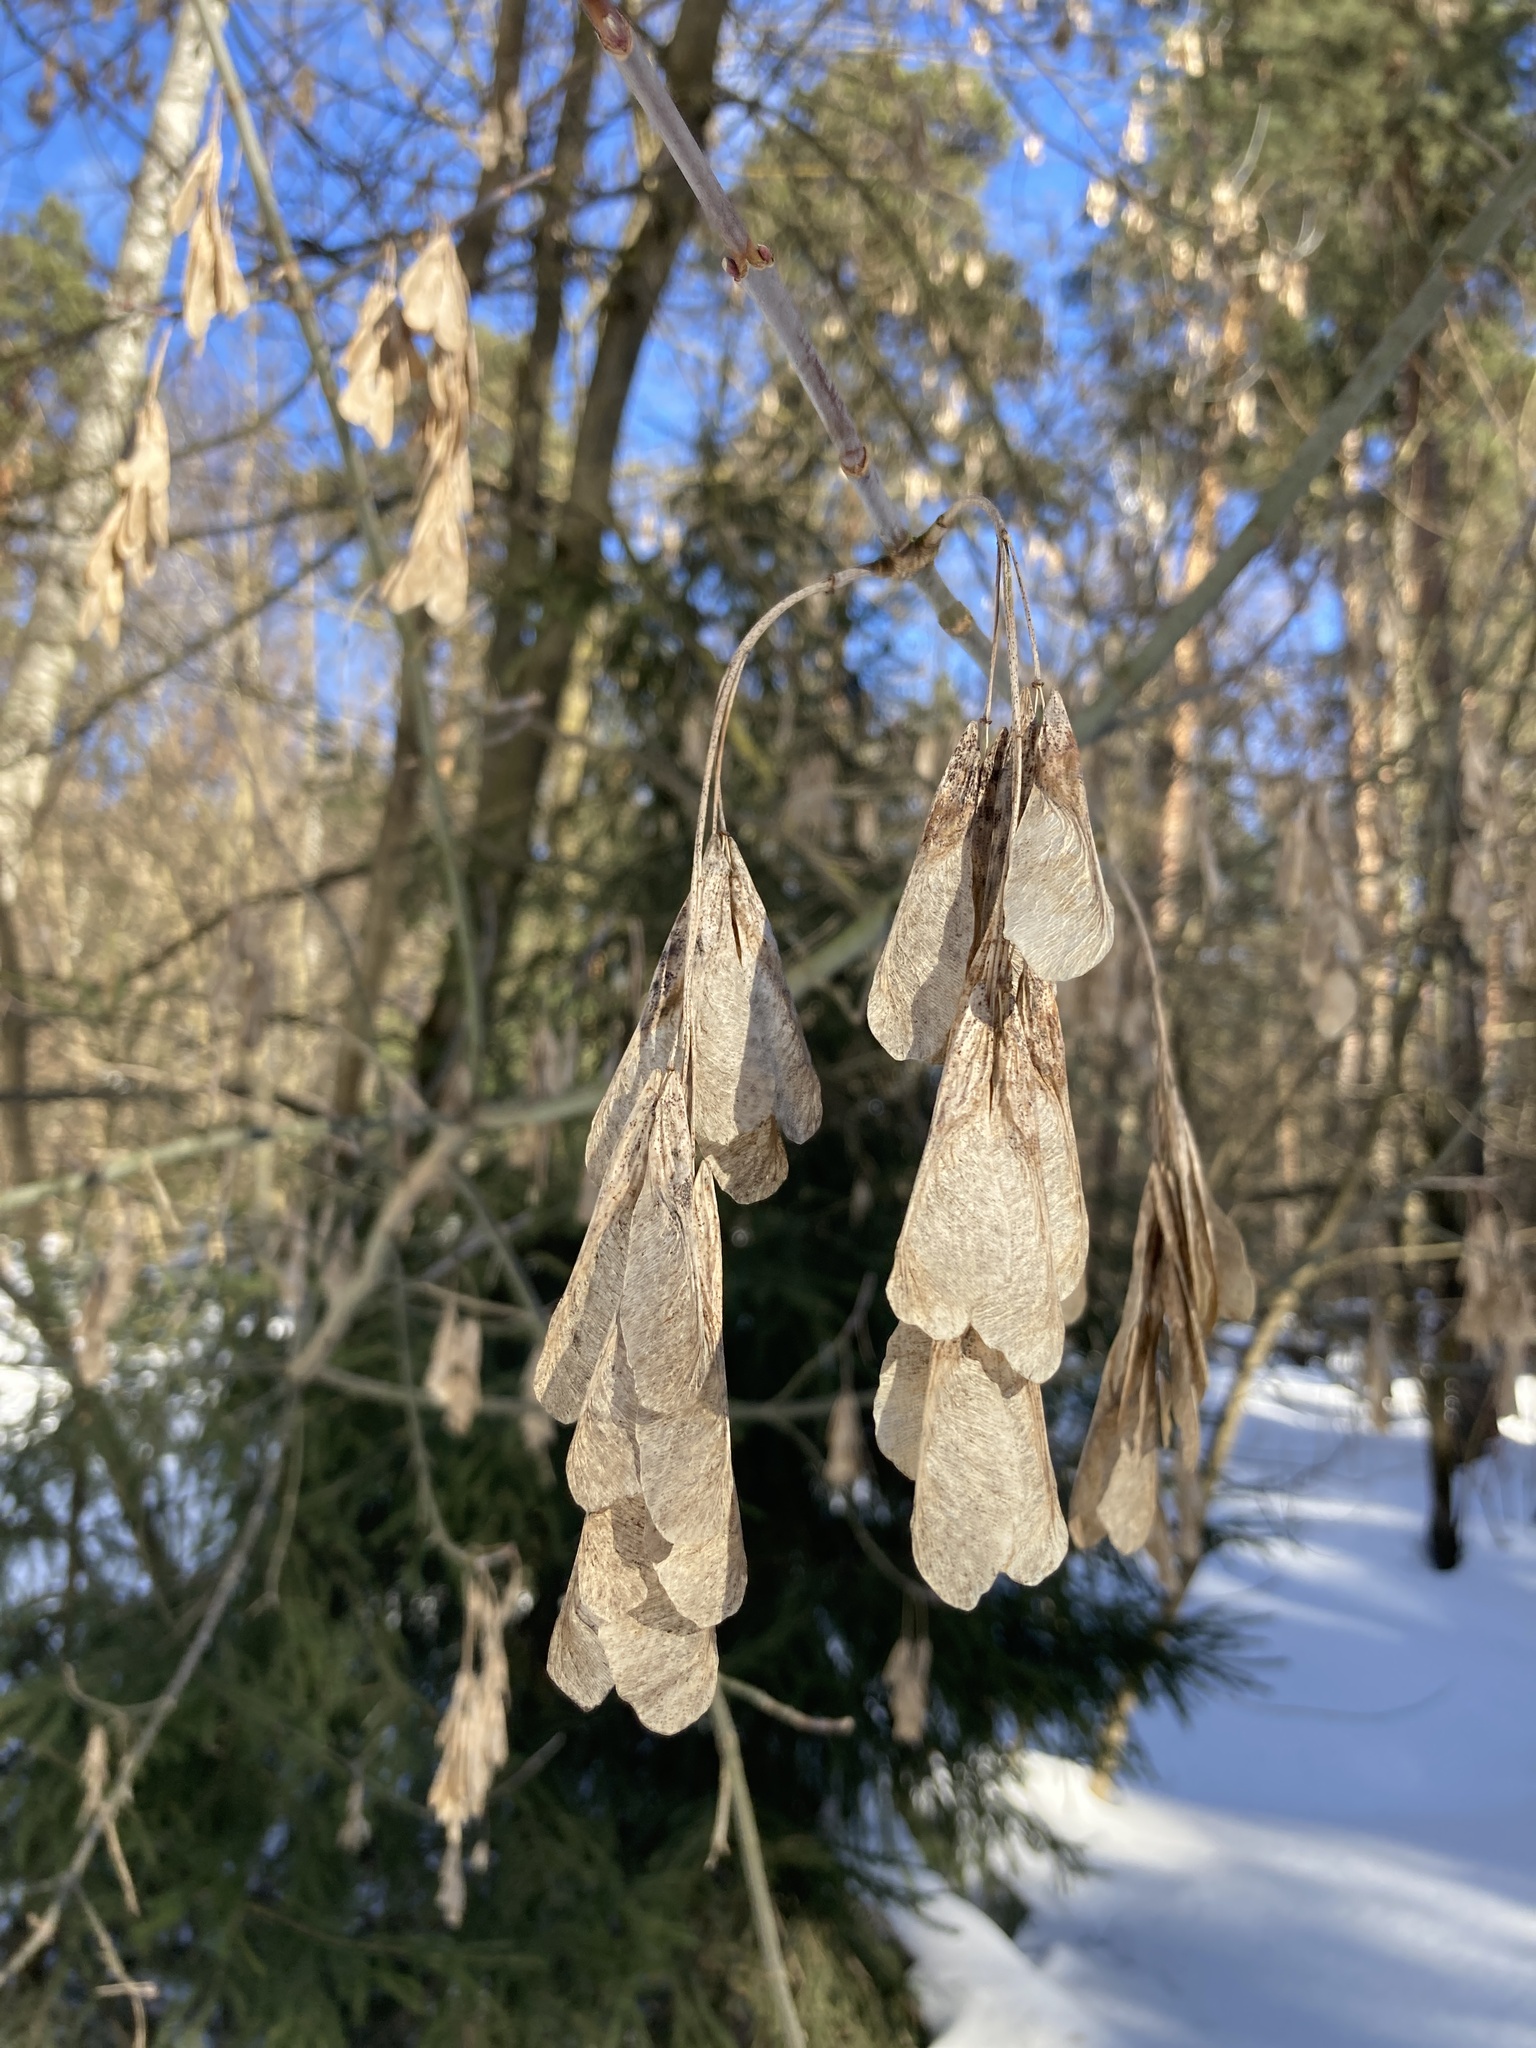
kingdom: Plantae
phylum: Tracheophyta
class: Magnoliopsida
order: Sapindales
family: Sapindaceae
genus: Acer
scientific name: Acer negundo
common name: Ashleaf maple
